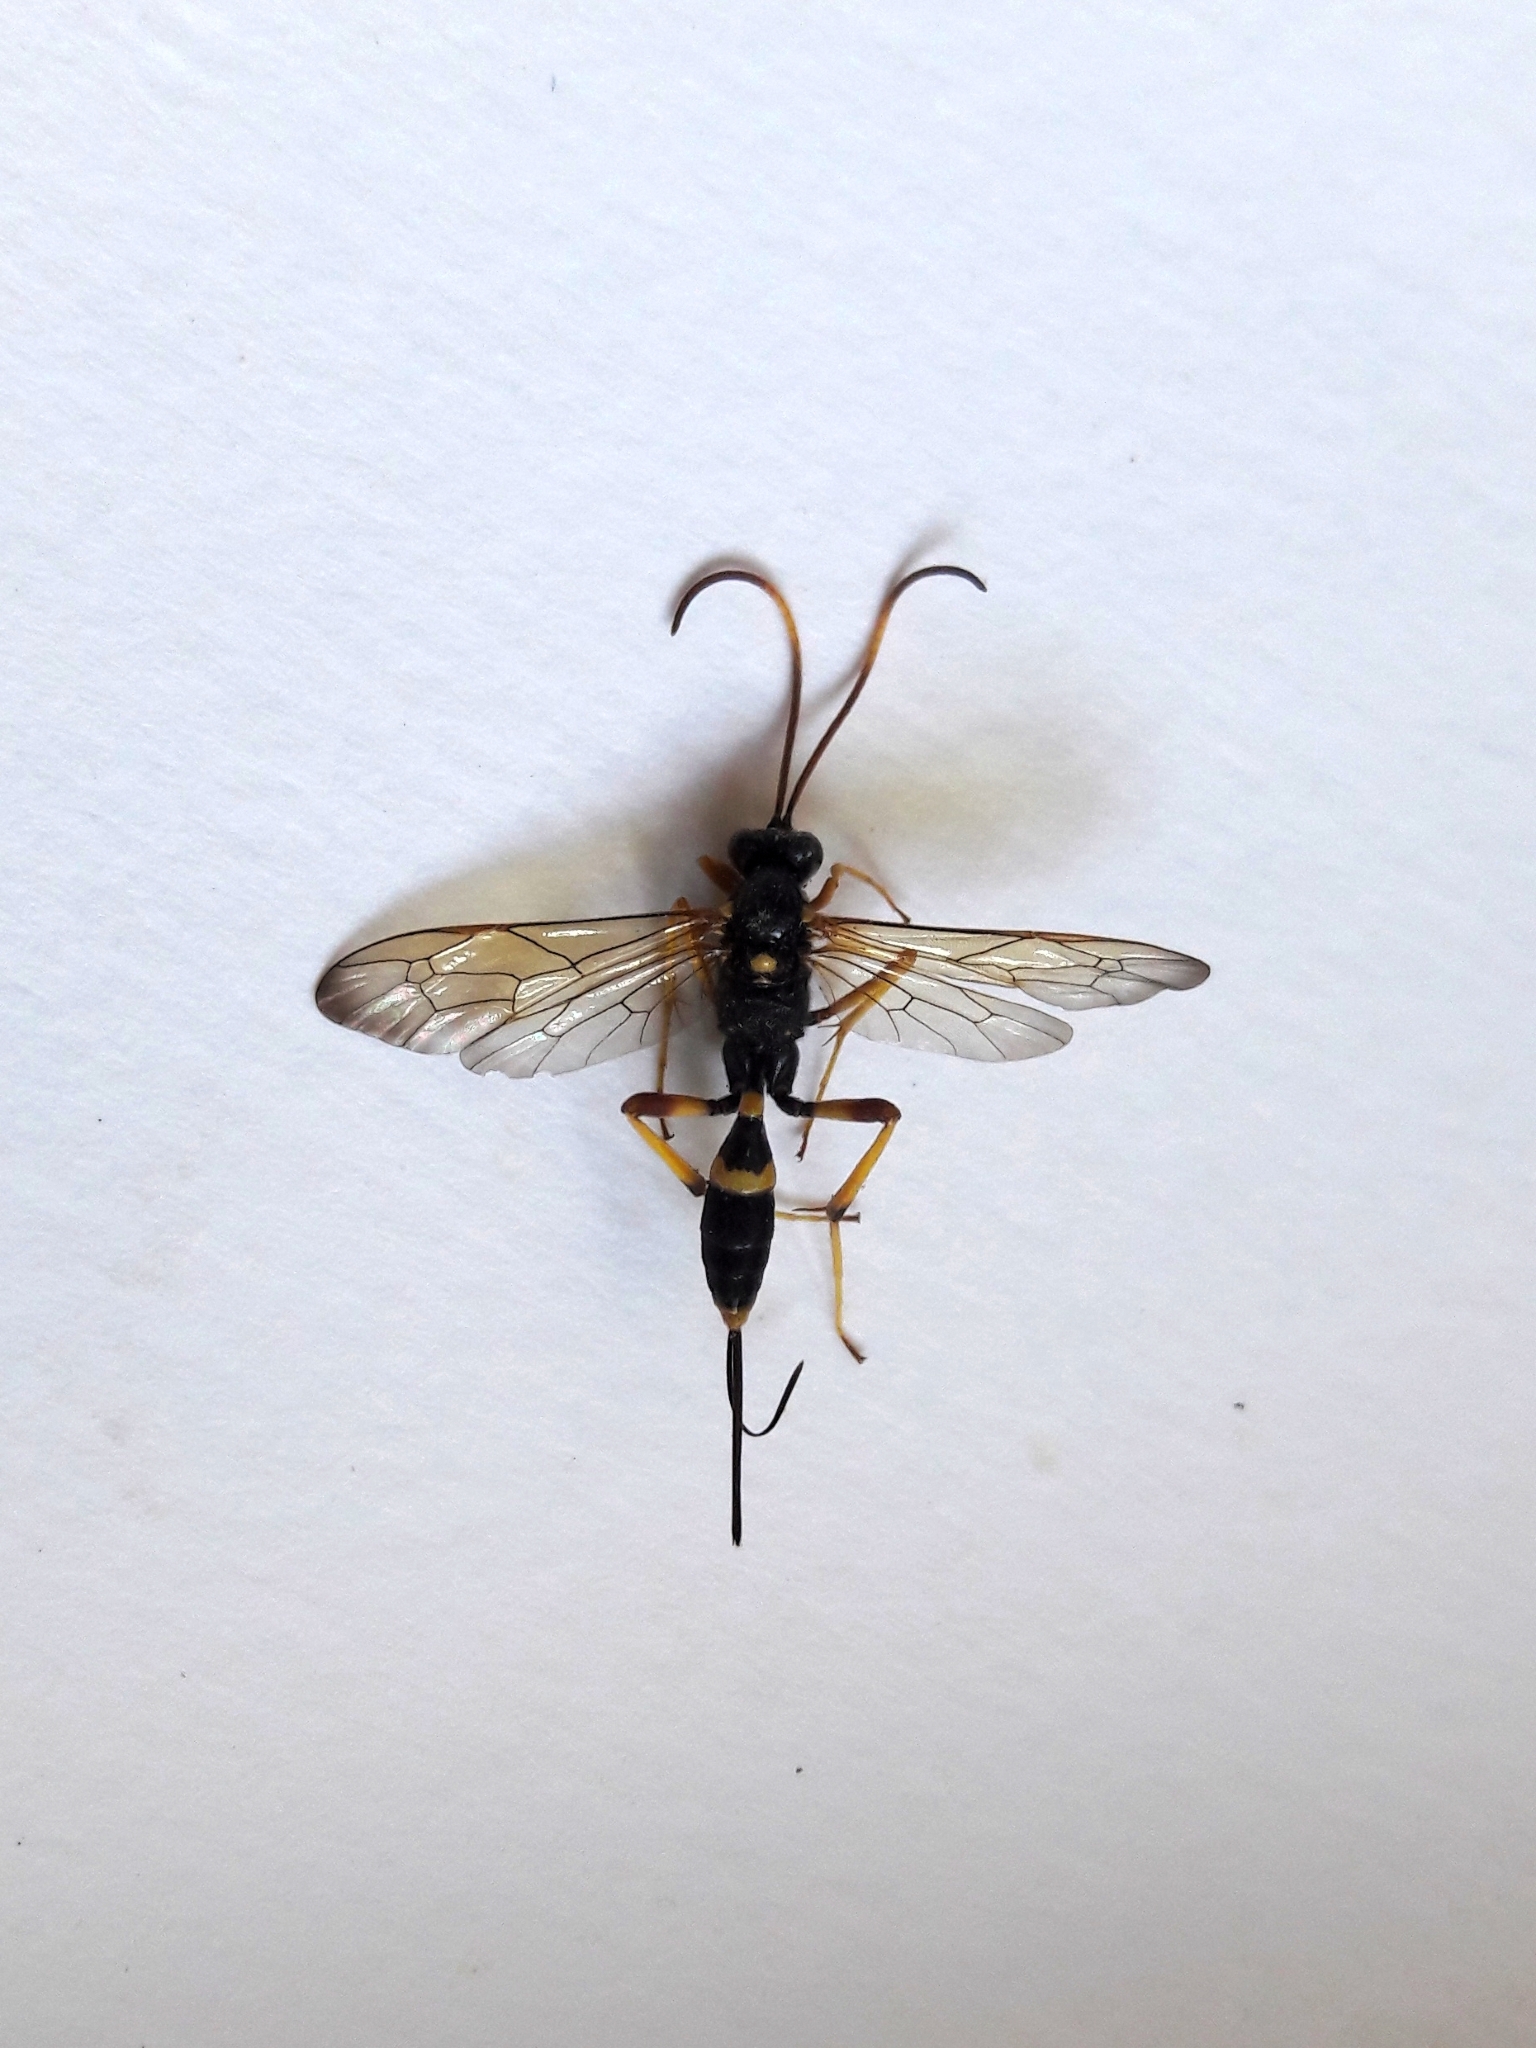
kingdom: Animalia
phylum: Arthropoda
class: Insecta
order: Hymenoptera
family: Ichneumonidae
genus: Acroricnus
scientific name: Acroricnus seductor
